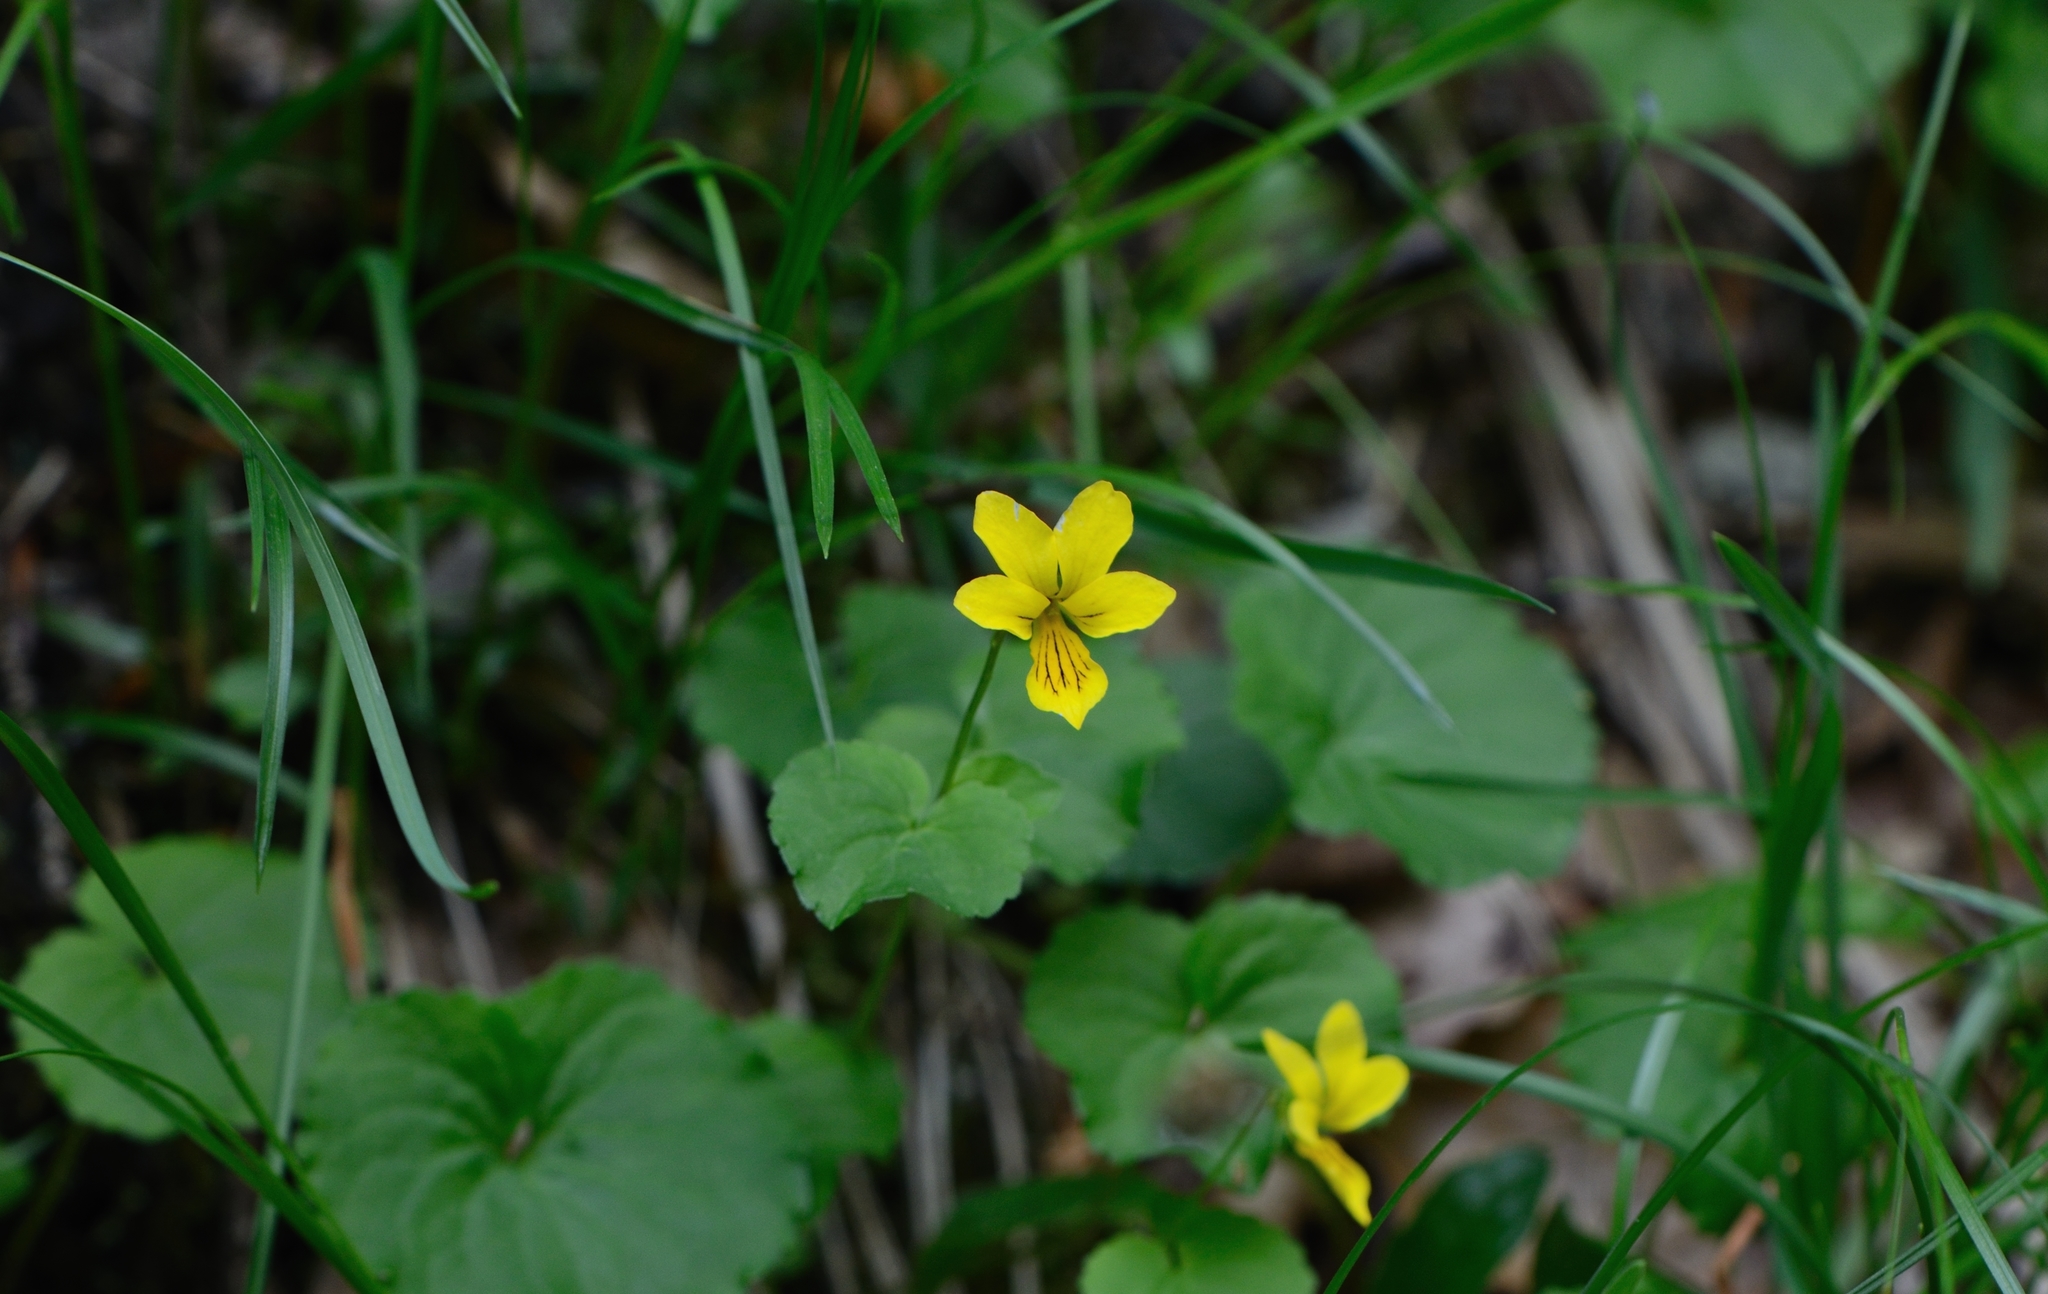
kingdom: Plantae
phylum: Tracheophyta
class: Magnoliopsida
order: Malpighiales
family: Violaceae
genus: Viola
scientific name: Viola biflora
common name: Alpine yellow violet
